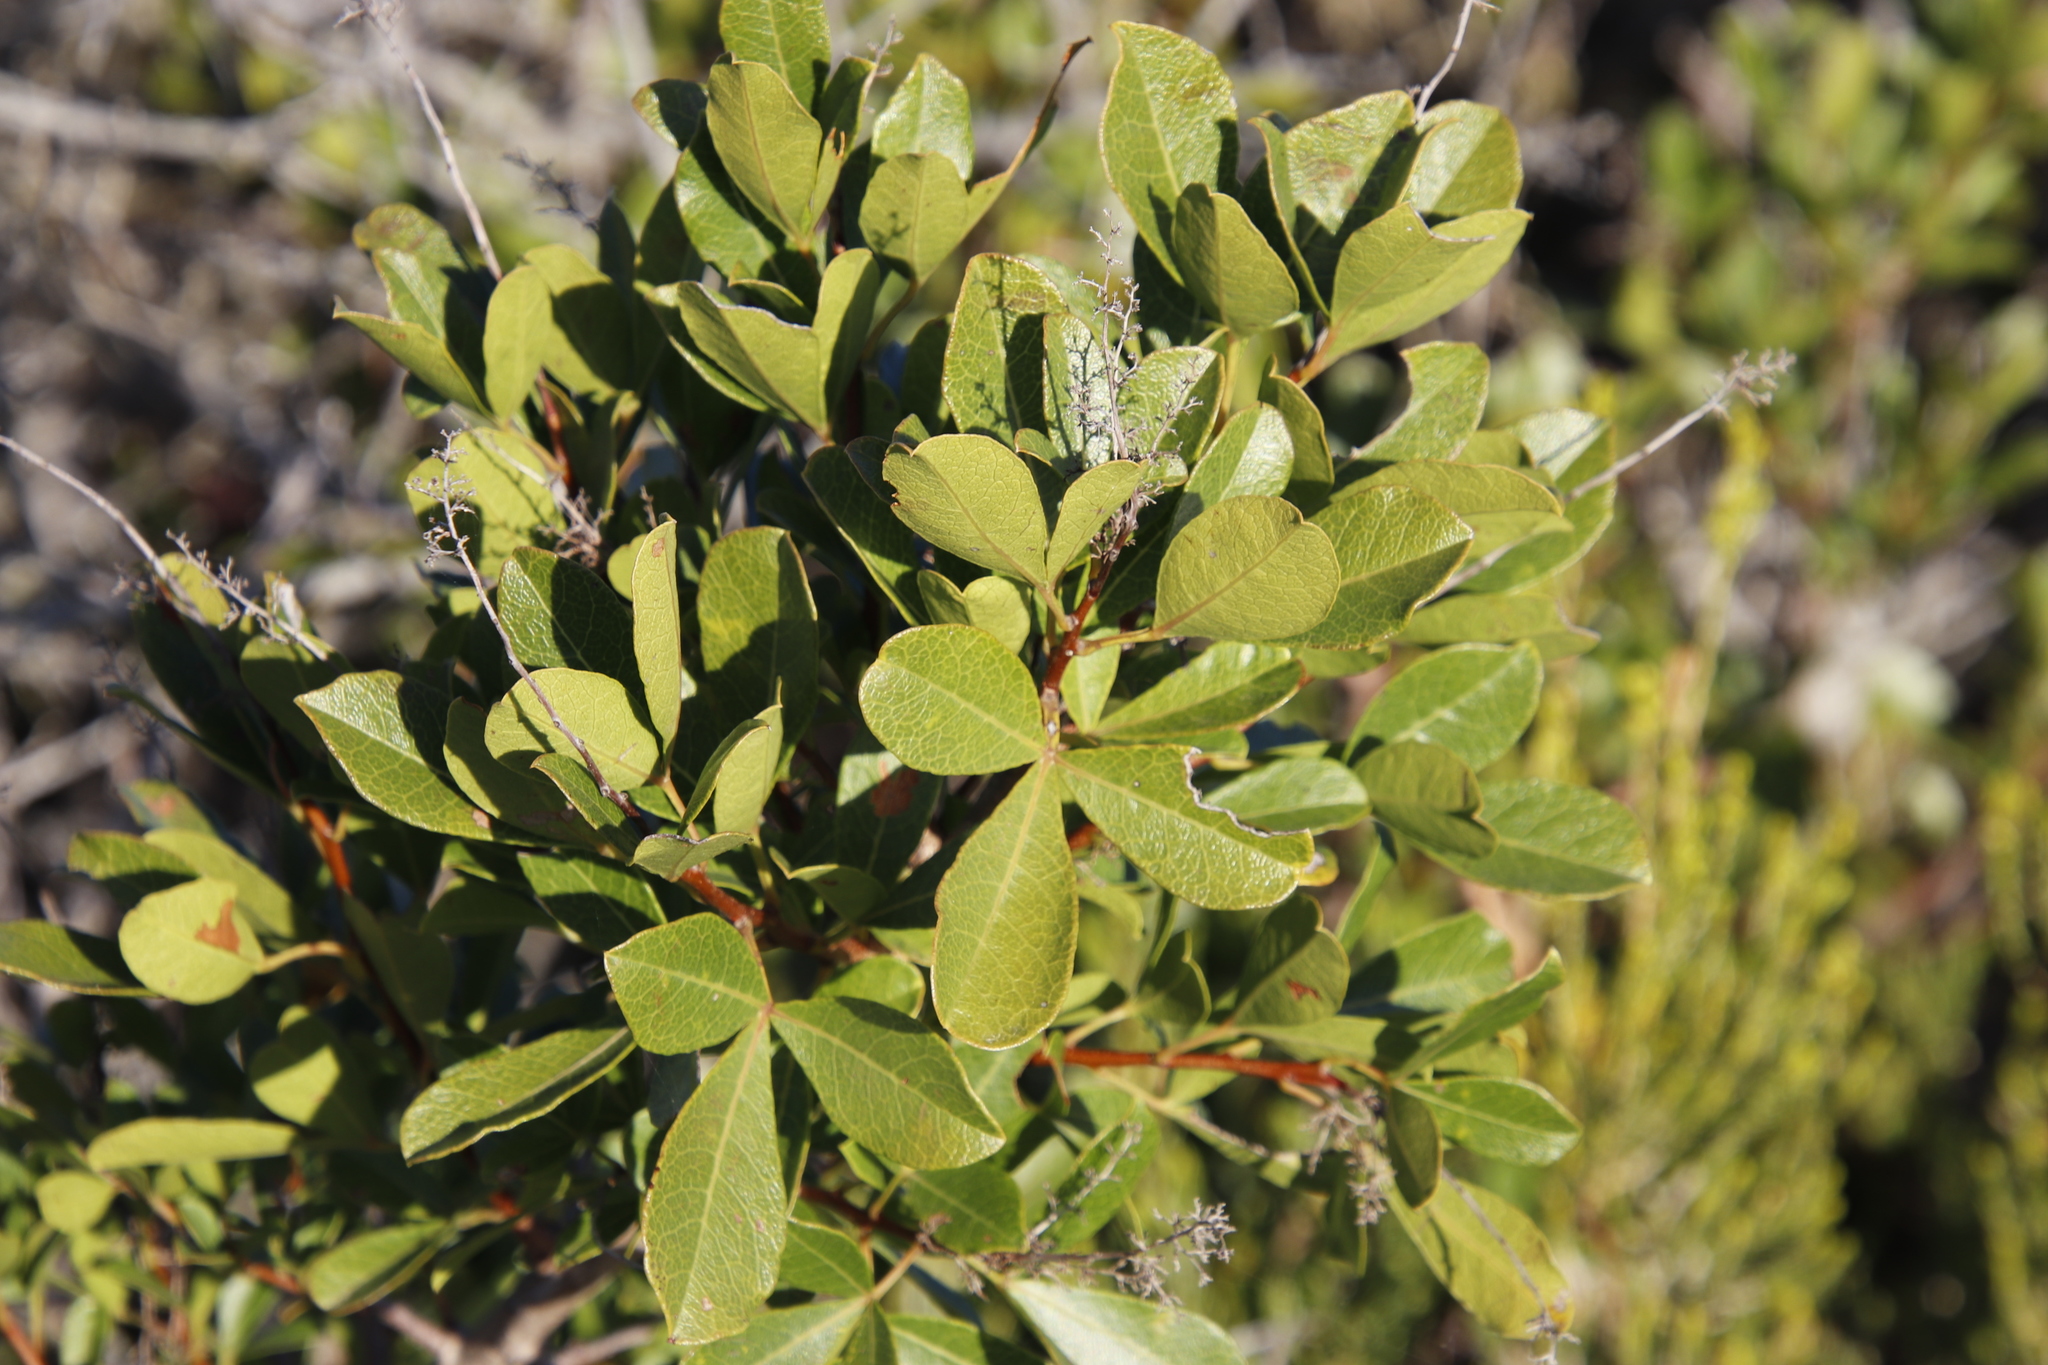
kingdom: Plantae
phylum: Tracheophyta
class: Magnoliopsida
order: Sapindales
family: Anacardiaceae
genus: Searsia
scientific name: Searsia laevigata
